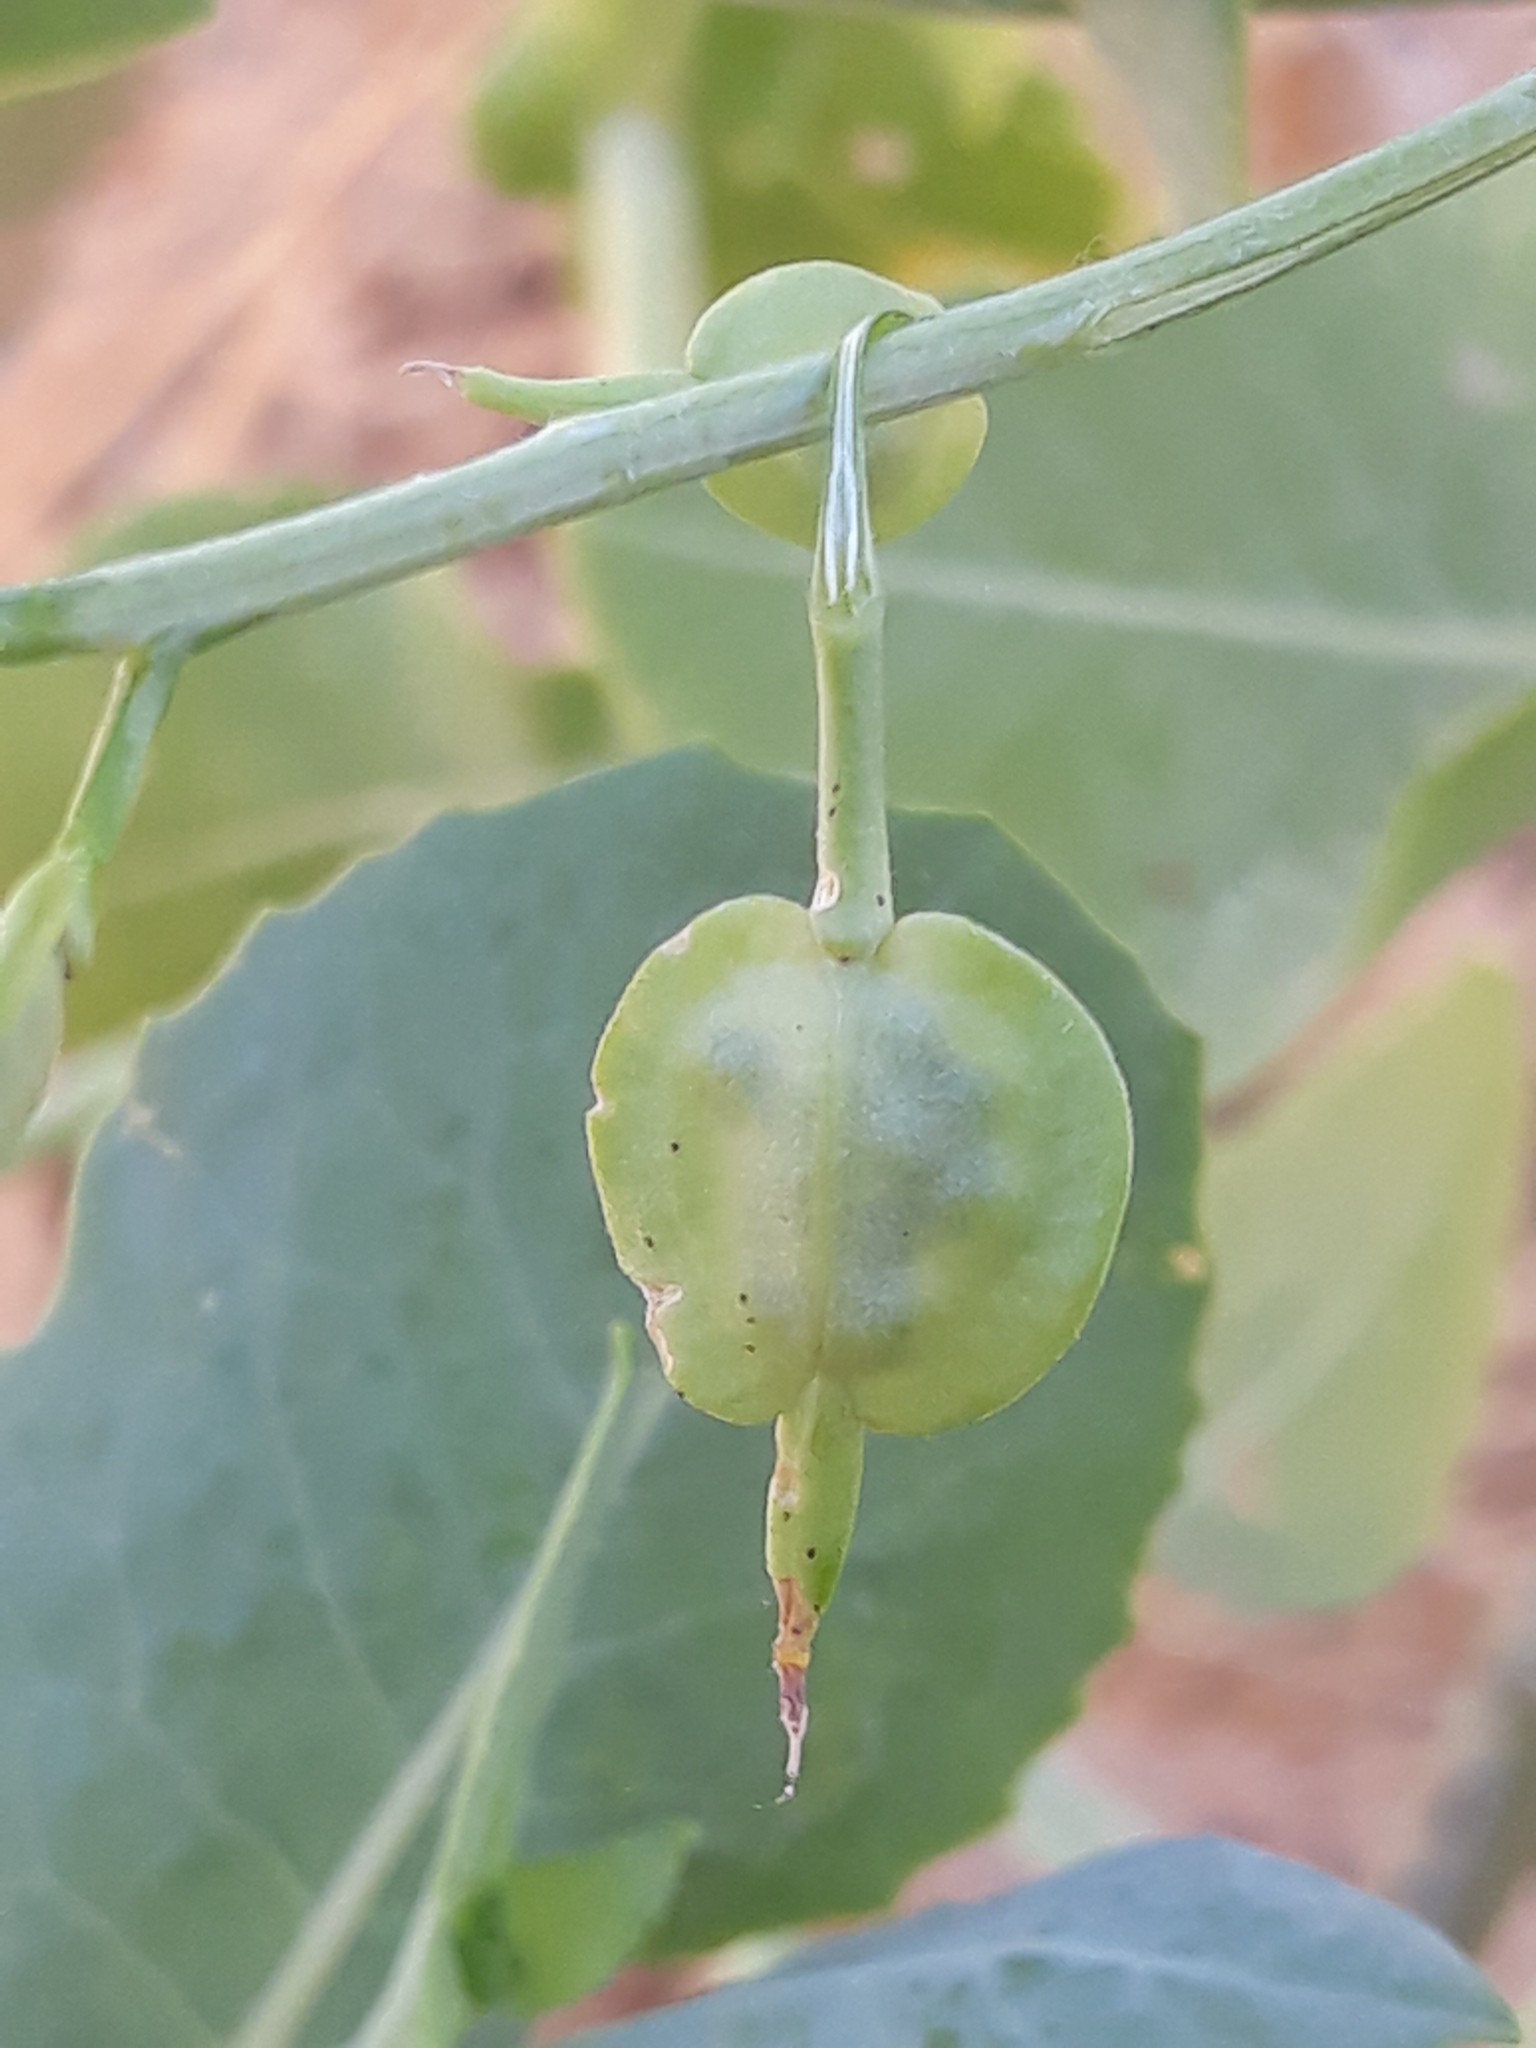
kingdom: Plantae
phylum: Tracheophyta
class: Magnoliopsida
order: Brassicales
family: Brassicaceae
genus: Schouwia
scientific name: Schouwia purpurea
